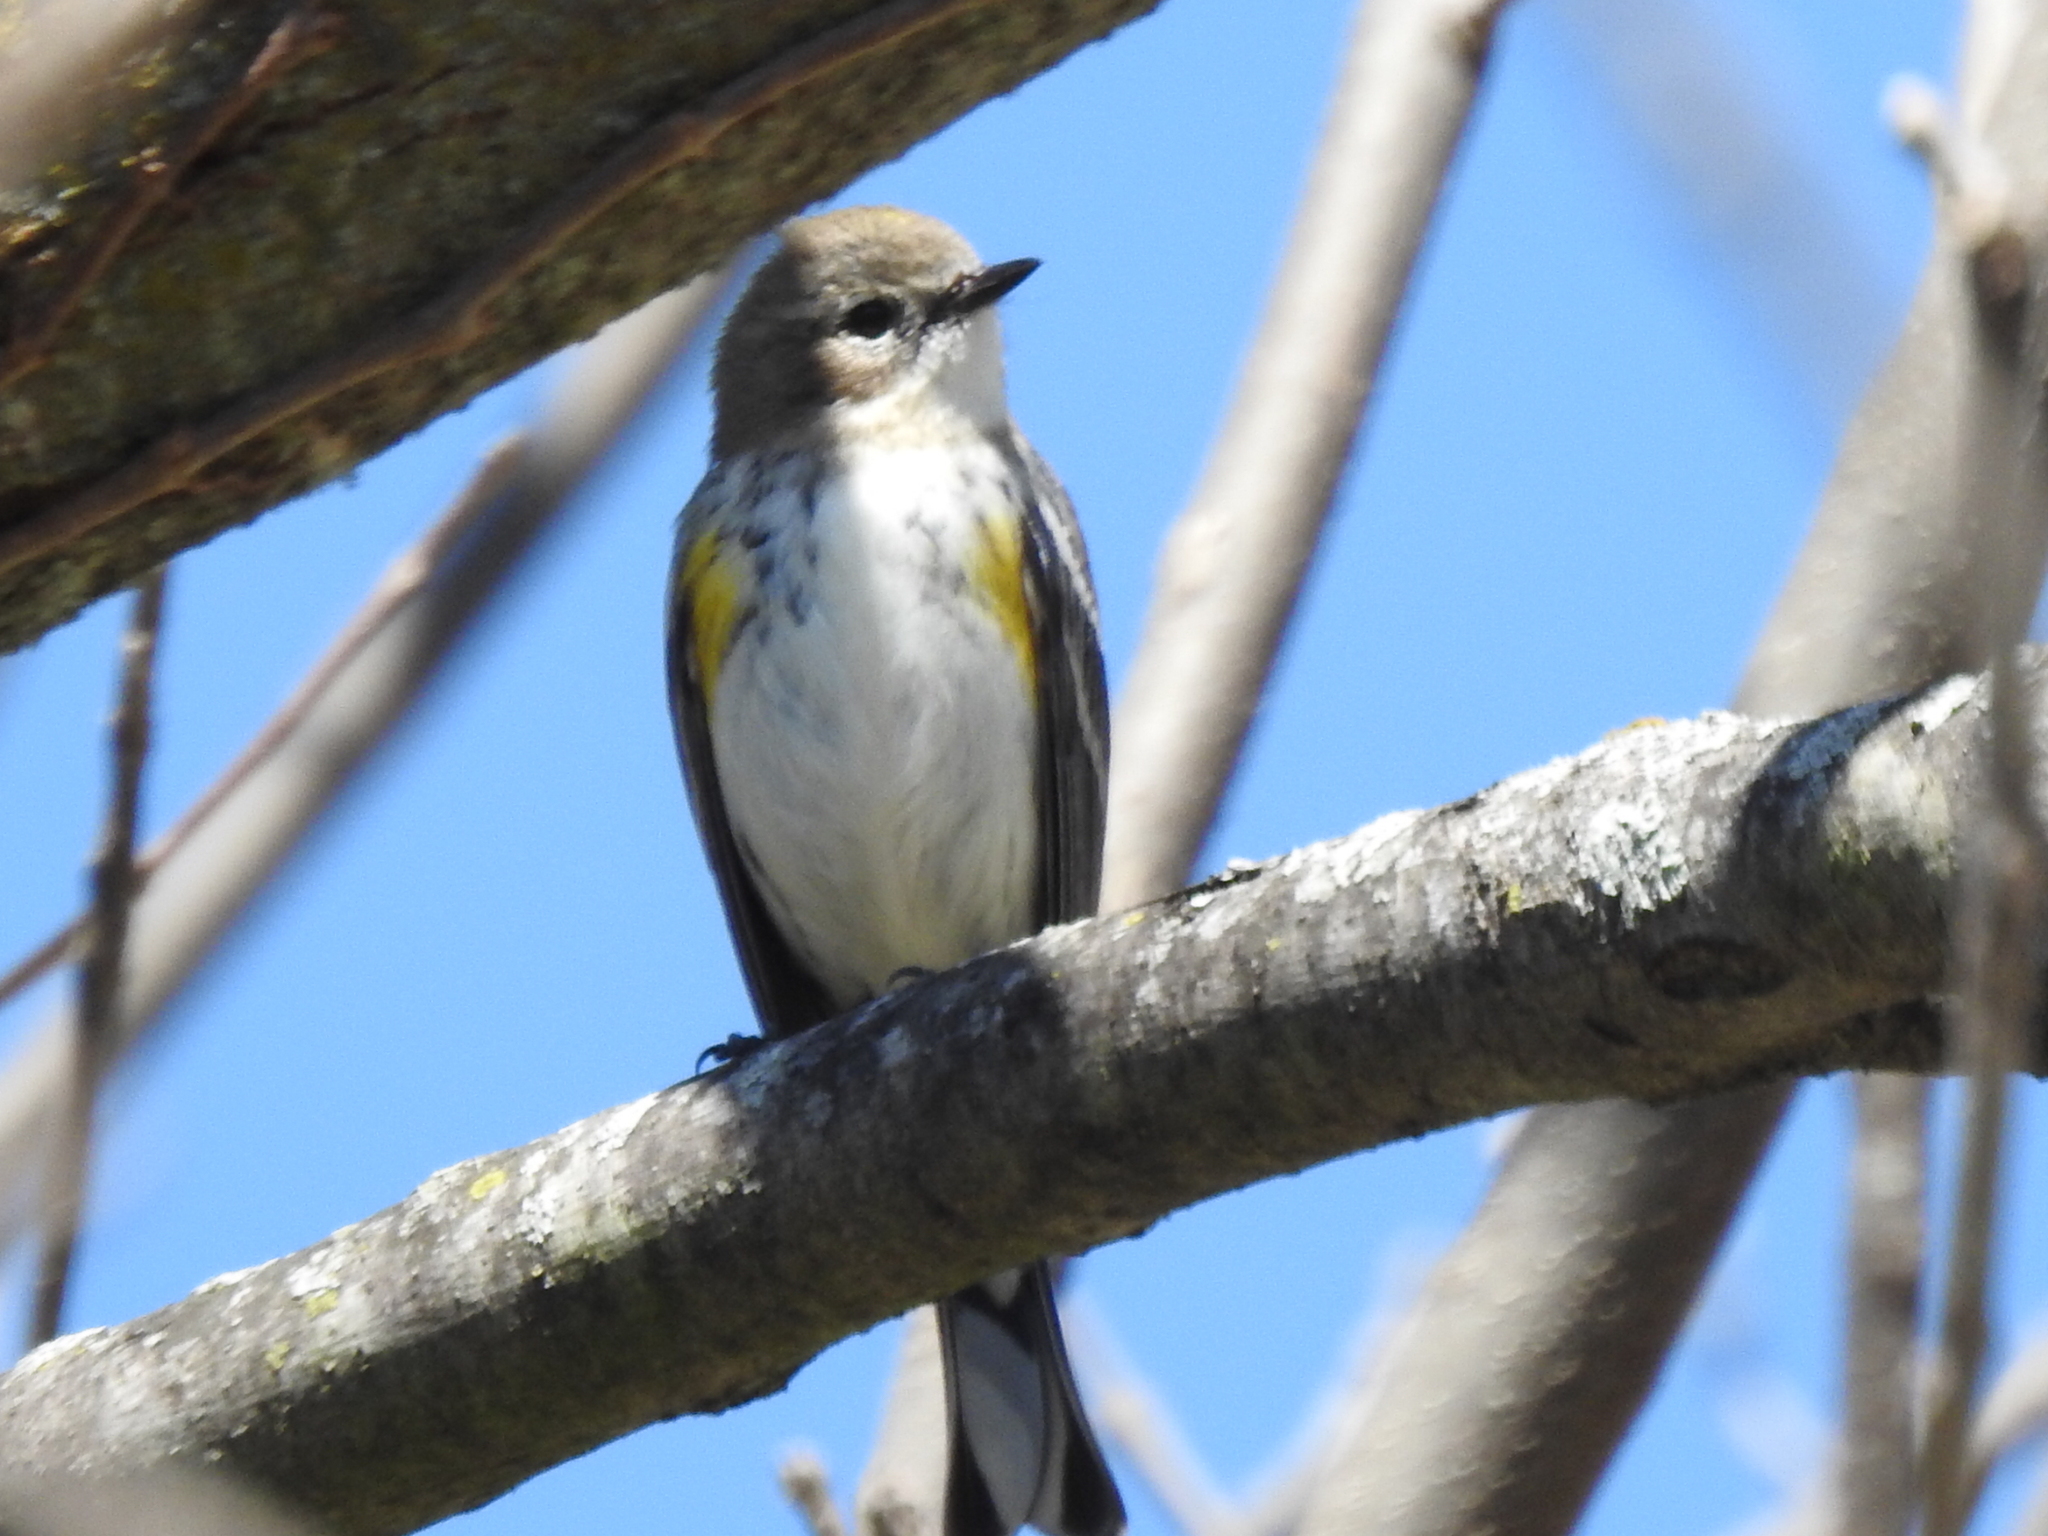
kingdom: Animalia
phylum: Chordata
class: Aves
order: Passeriformes
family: Parulidae
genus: Setophaga
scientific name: Setophaga coronata
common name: Myrtle warbler
